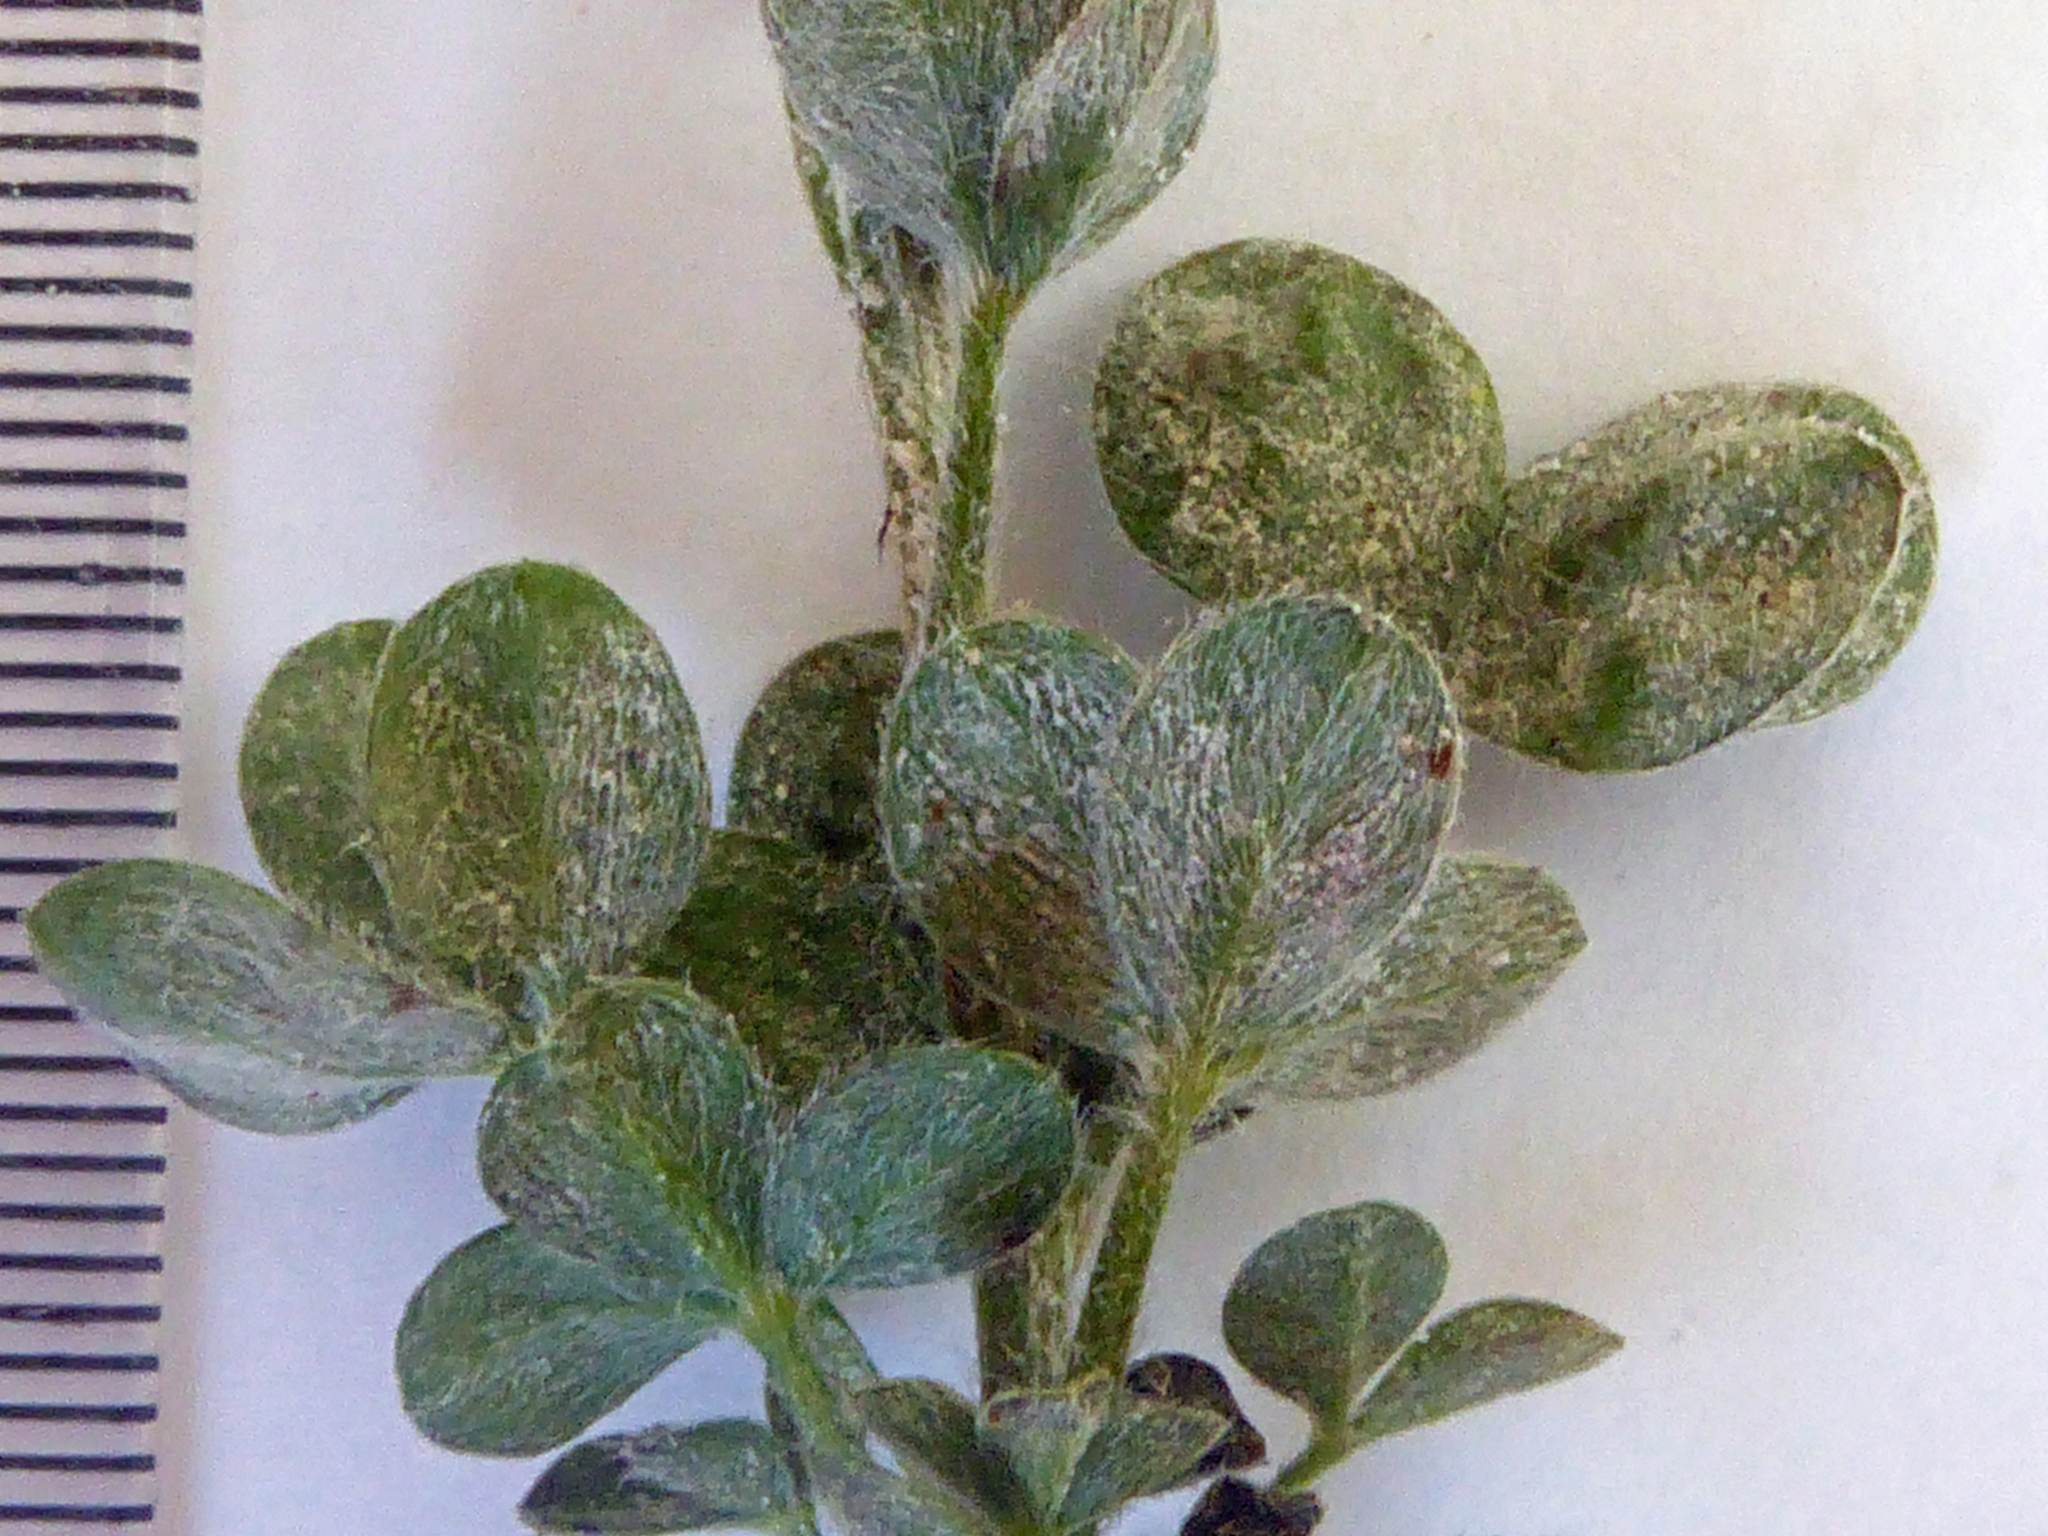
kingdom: Fungi
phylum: Ascomycota
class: Leotiomycetes
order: Helotiales
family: Erysiphaceae
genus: Erysiphe
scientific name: Erysiphe trifoliorum
